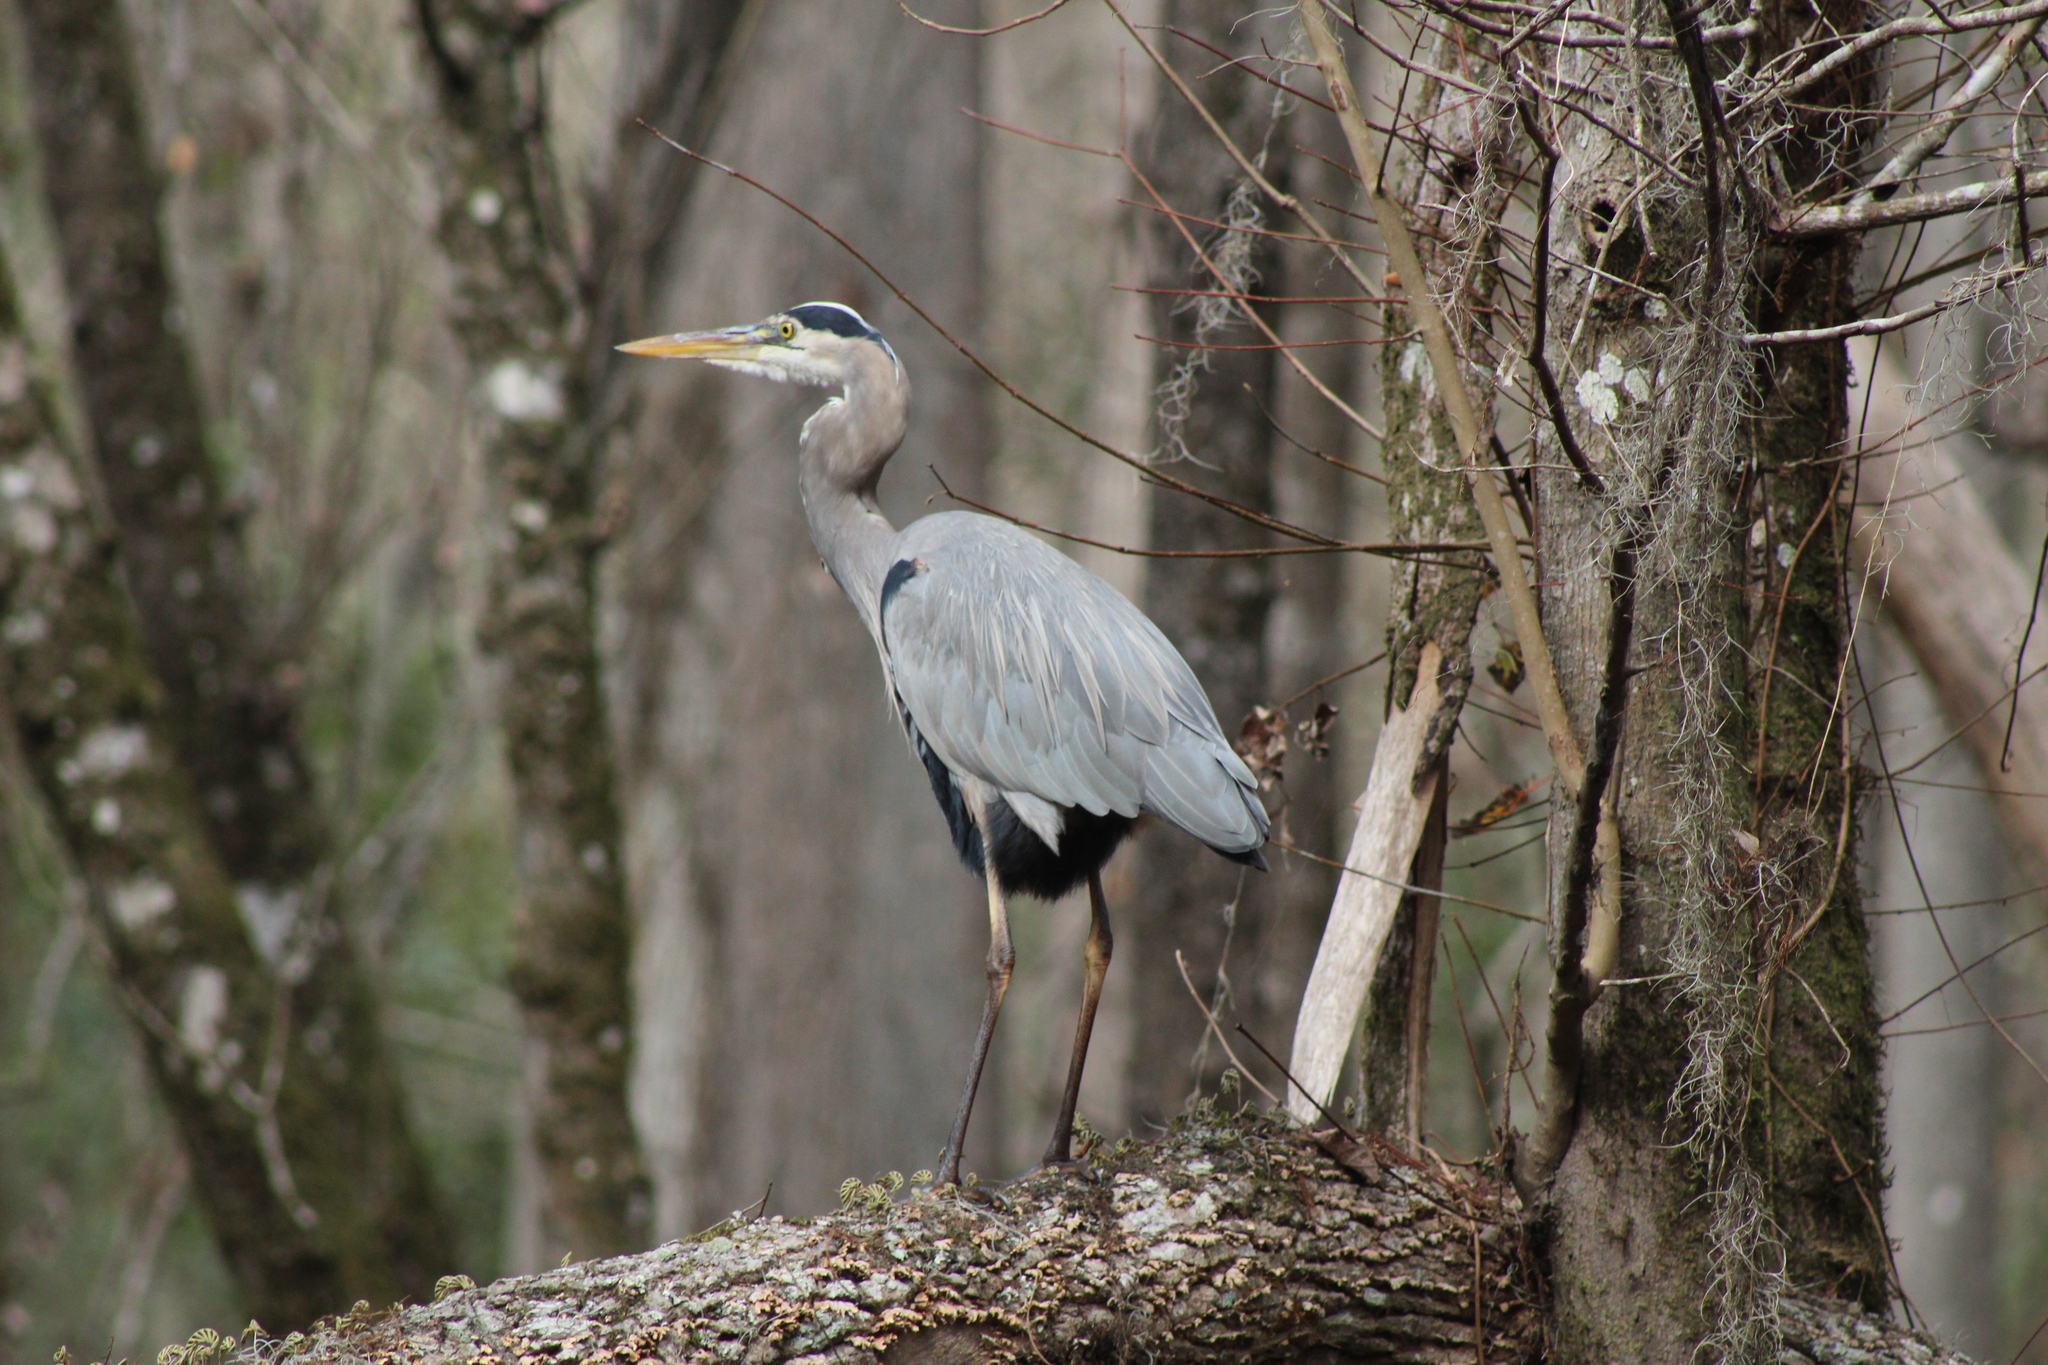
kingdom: Animalia
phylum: Chordata
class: Aves
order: Pelecaniformes
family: Ardeidae
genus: Ardea
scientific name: Ardea herodias
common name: Great blue heron
